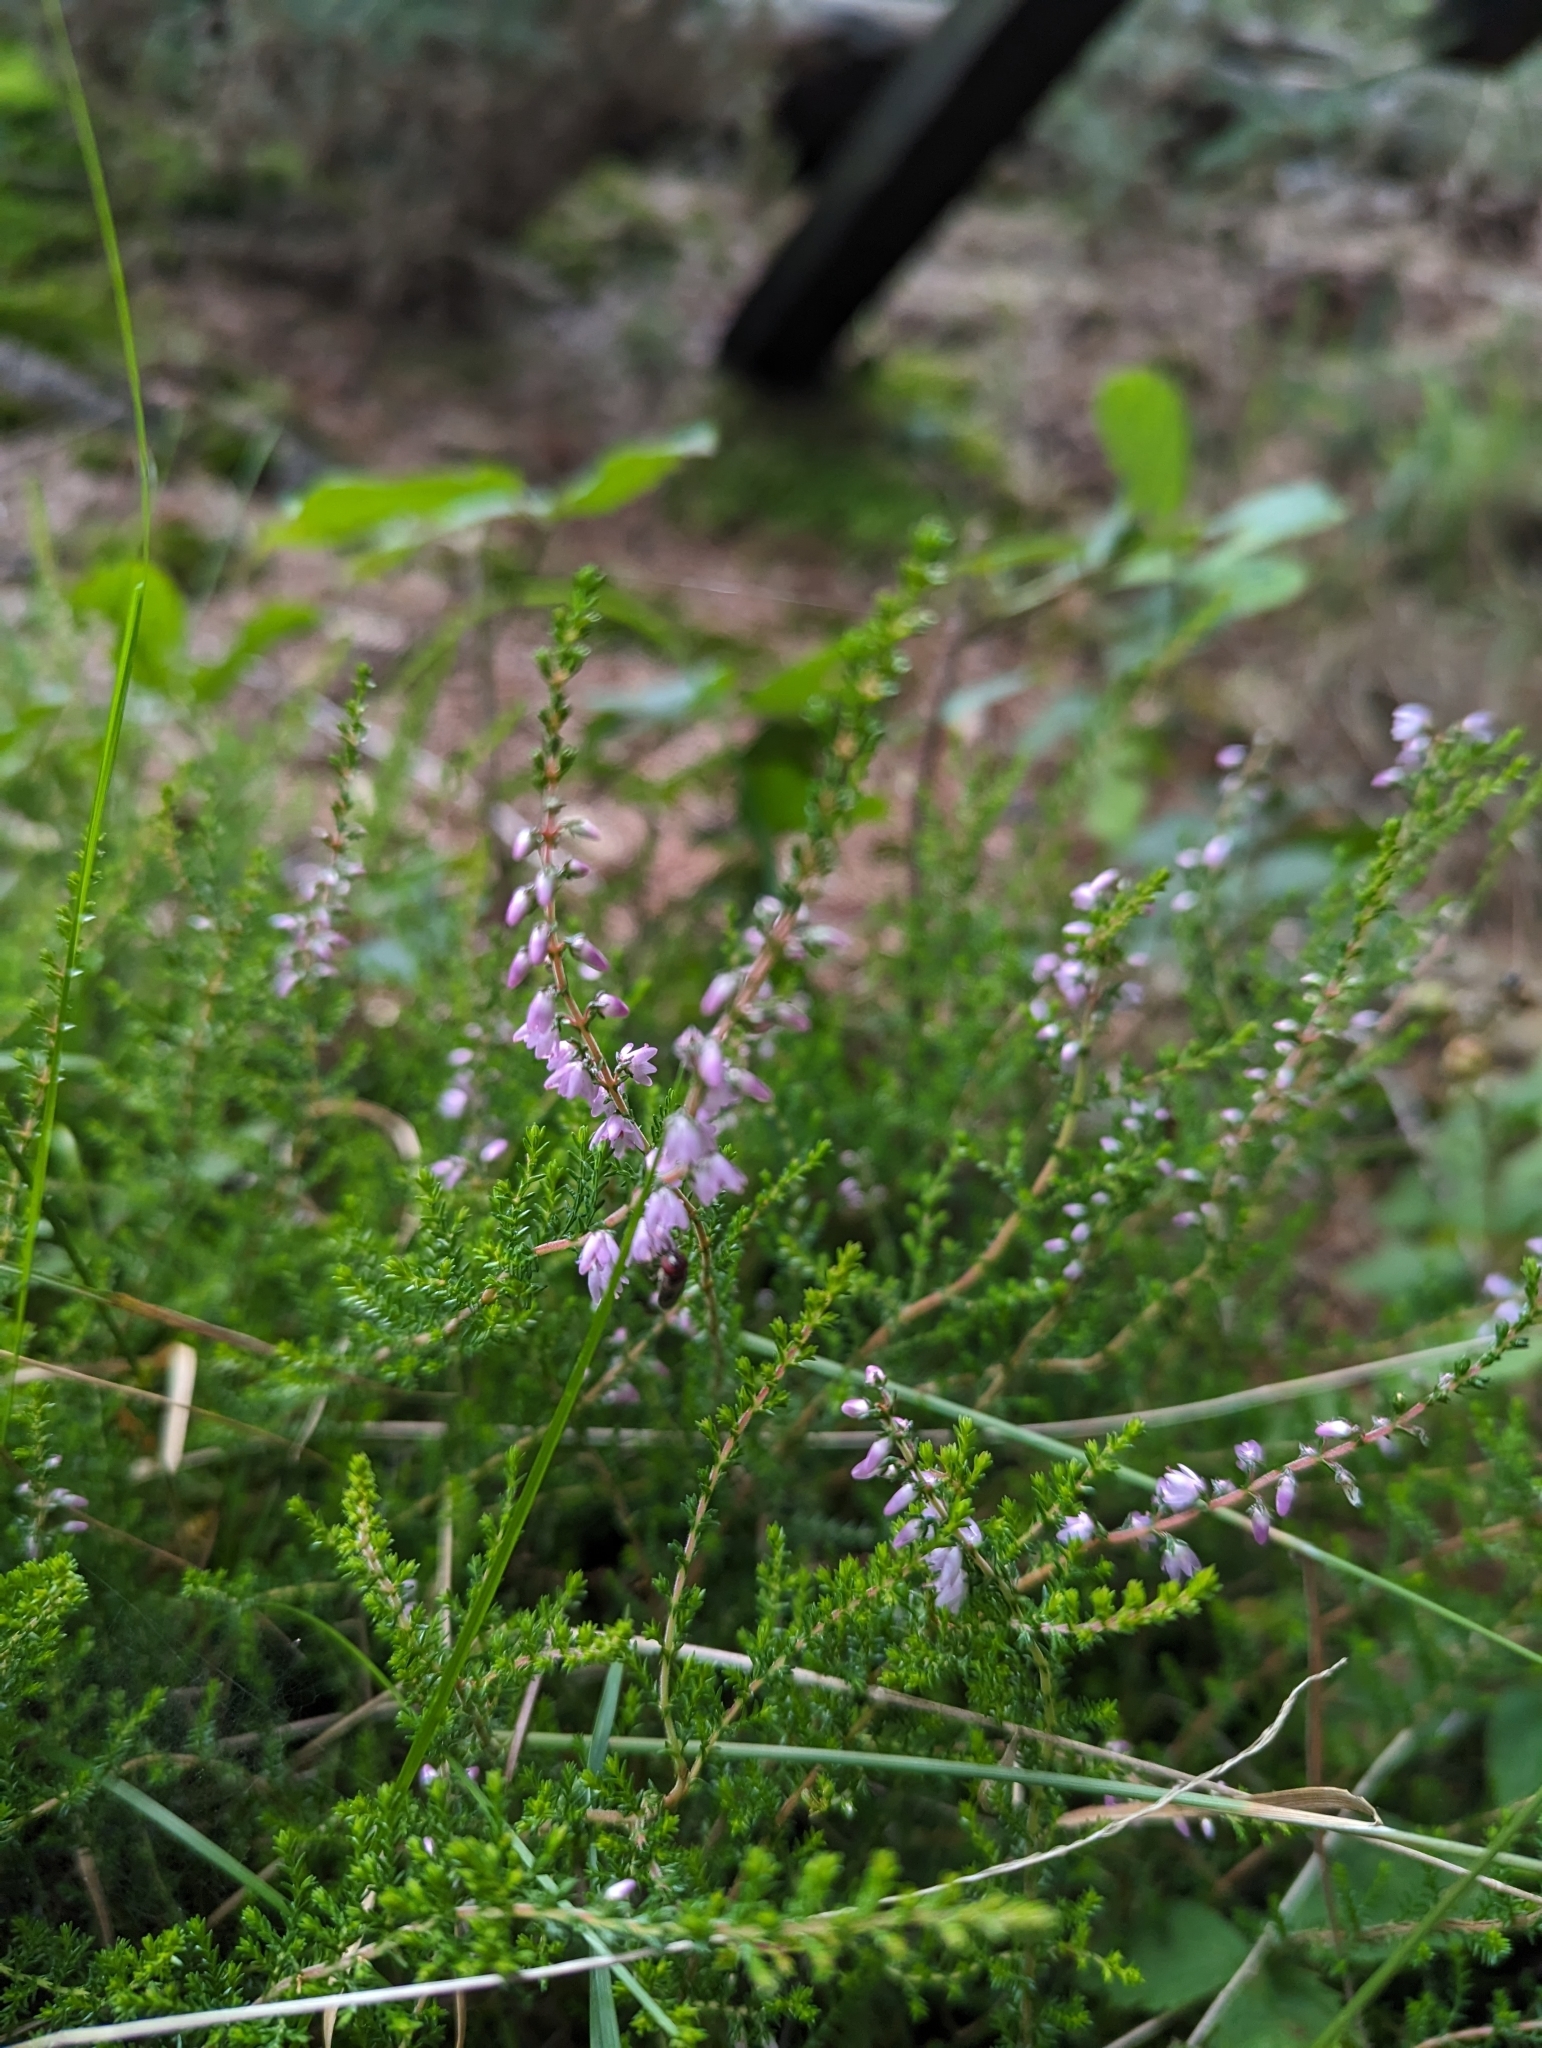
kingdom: Plantae
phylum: Tracheophyta
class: Magnoliopsida
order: Ericales
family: Ericaceae
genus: Calluna
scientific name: Calluna vulgaris
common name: Heather
